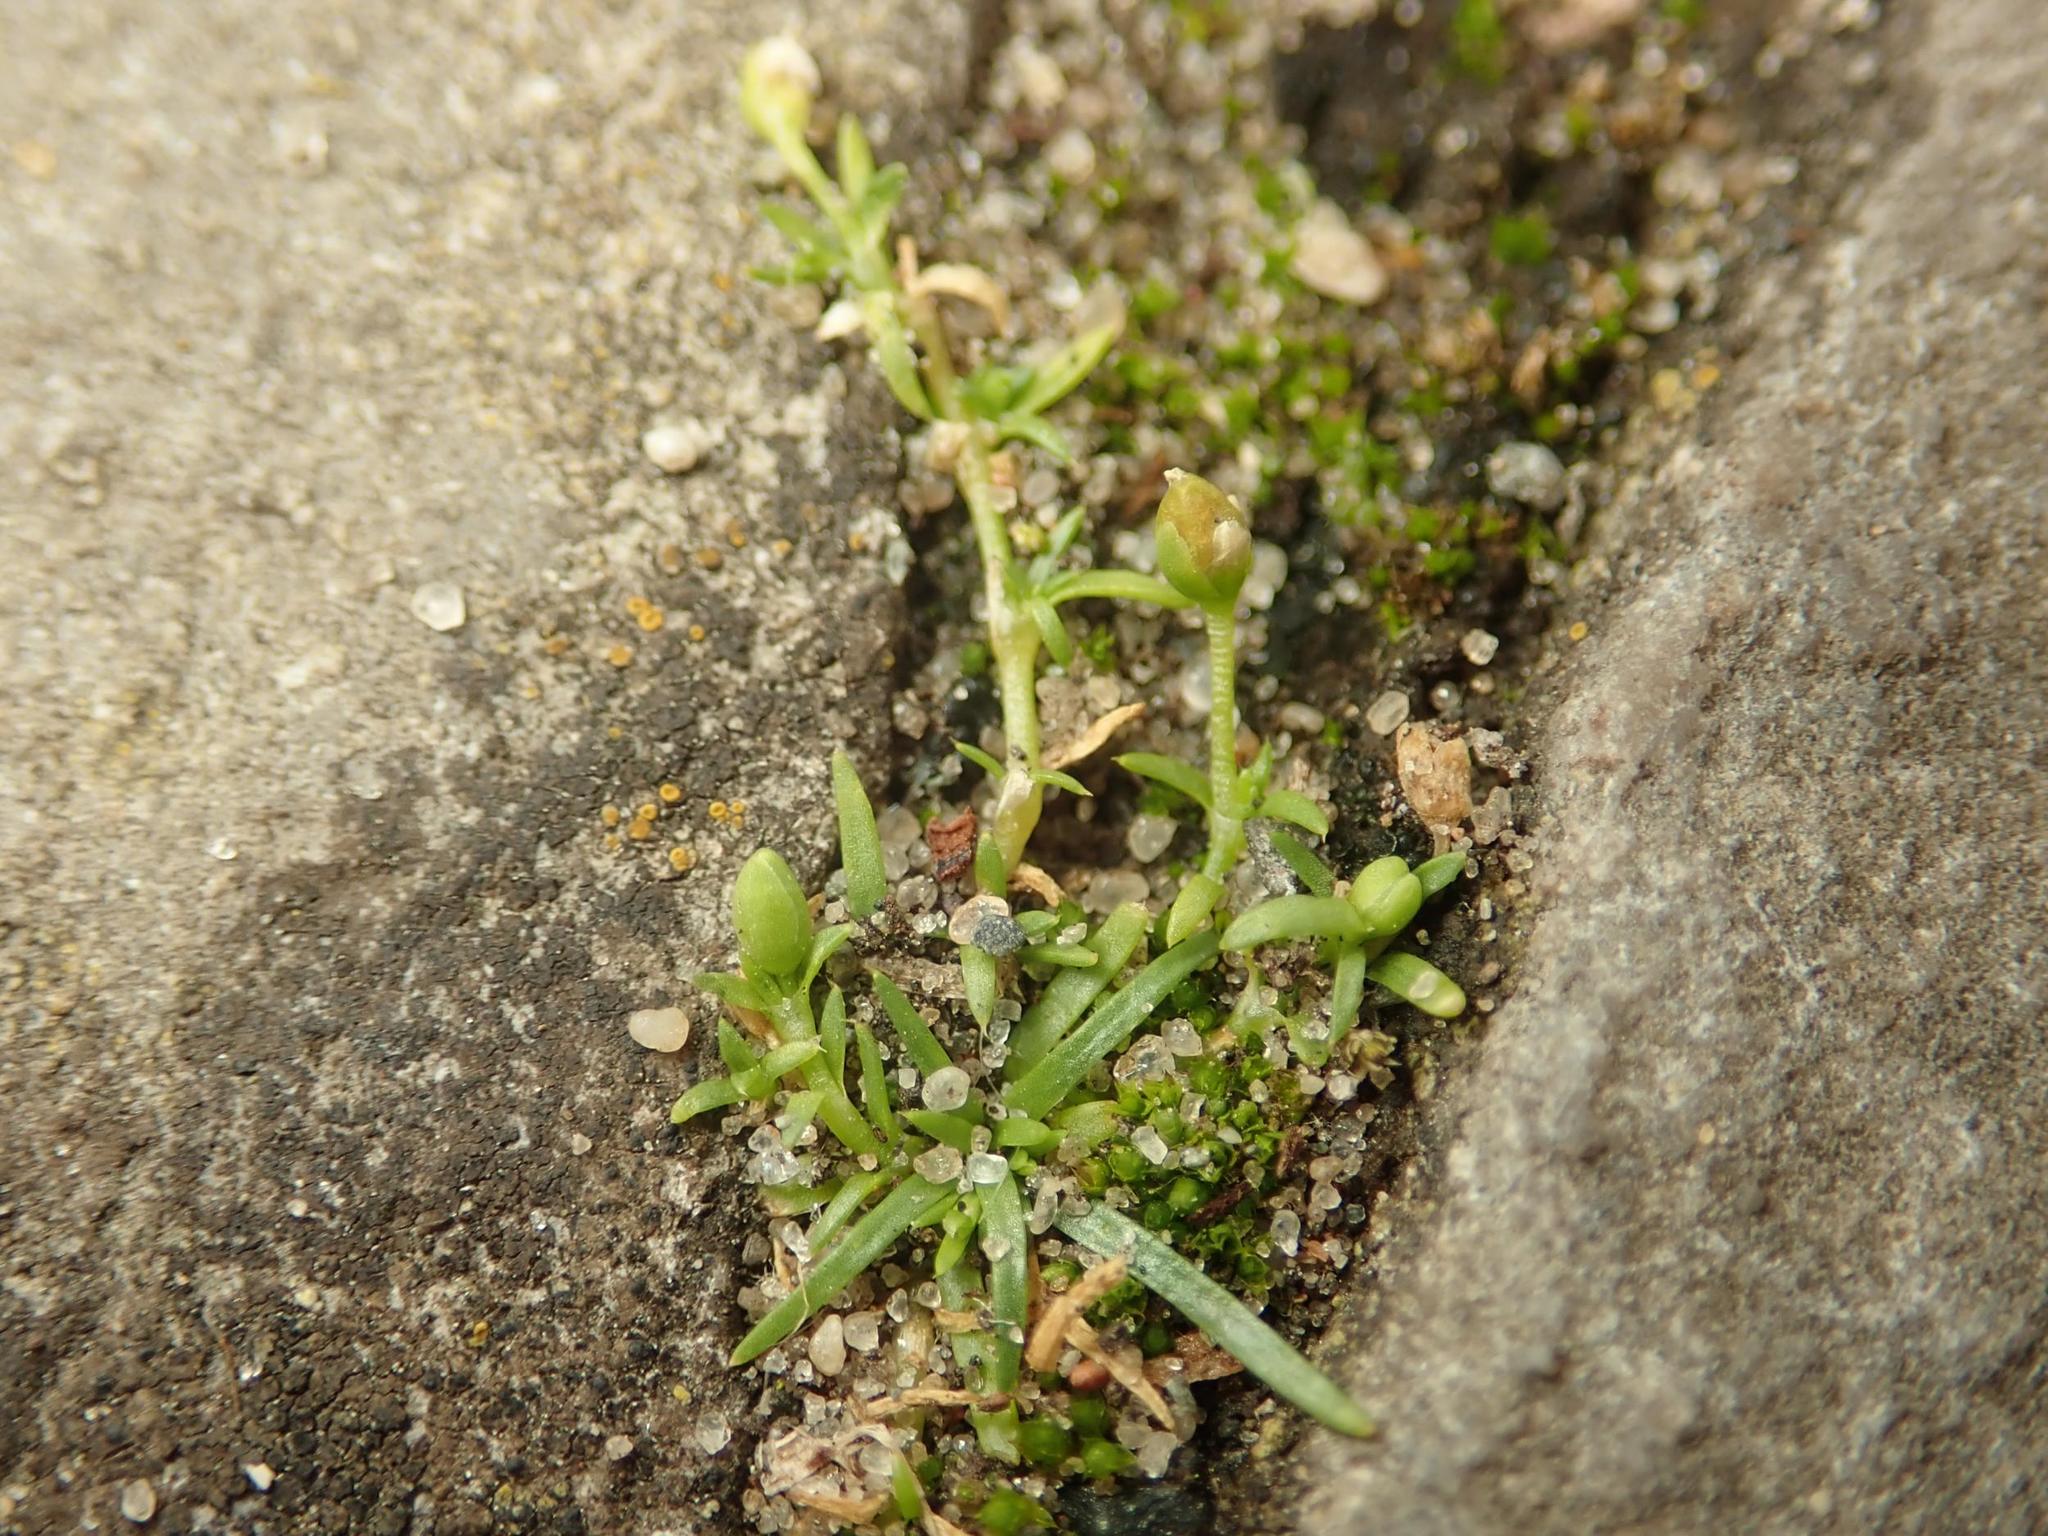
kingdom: Plantae
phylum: Tracheophyta
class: Magnoliopsida
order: Caryophyllales
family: Caryophyllaceae
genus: Sagina
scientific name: Sagina procumbens
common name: Procumbent pearlwort
